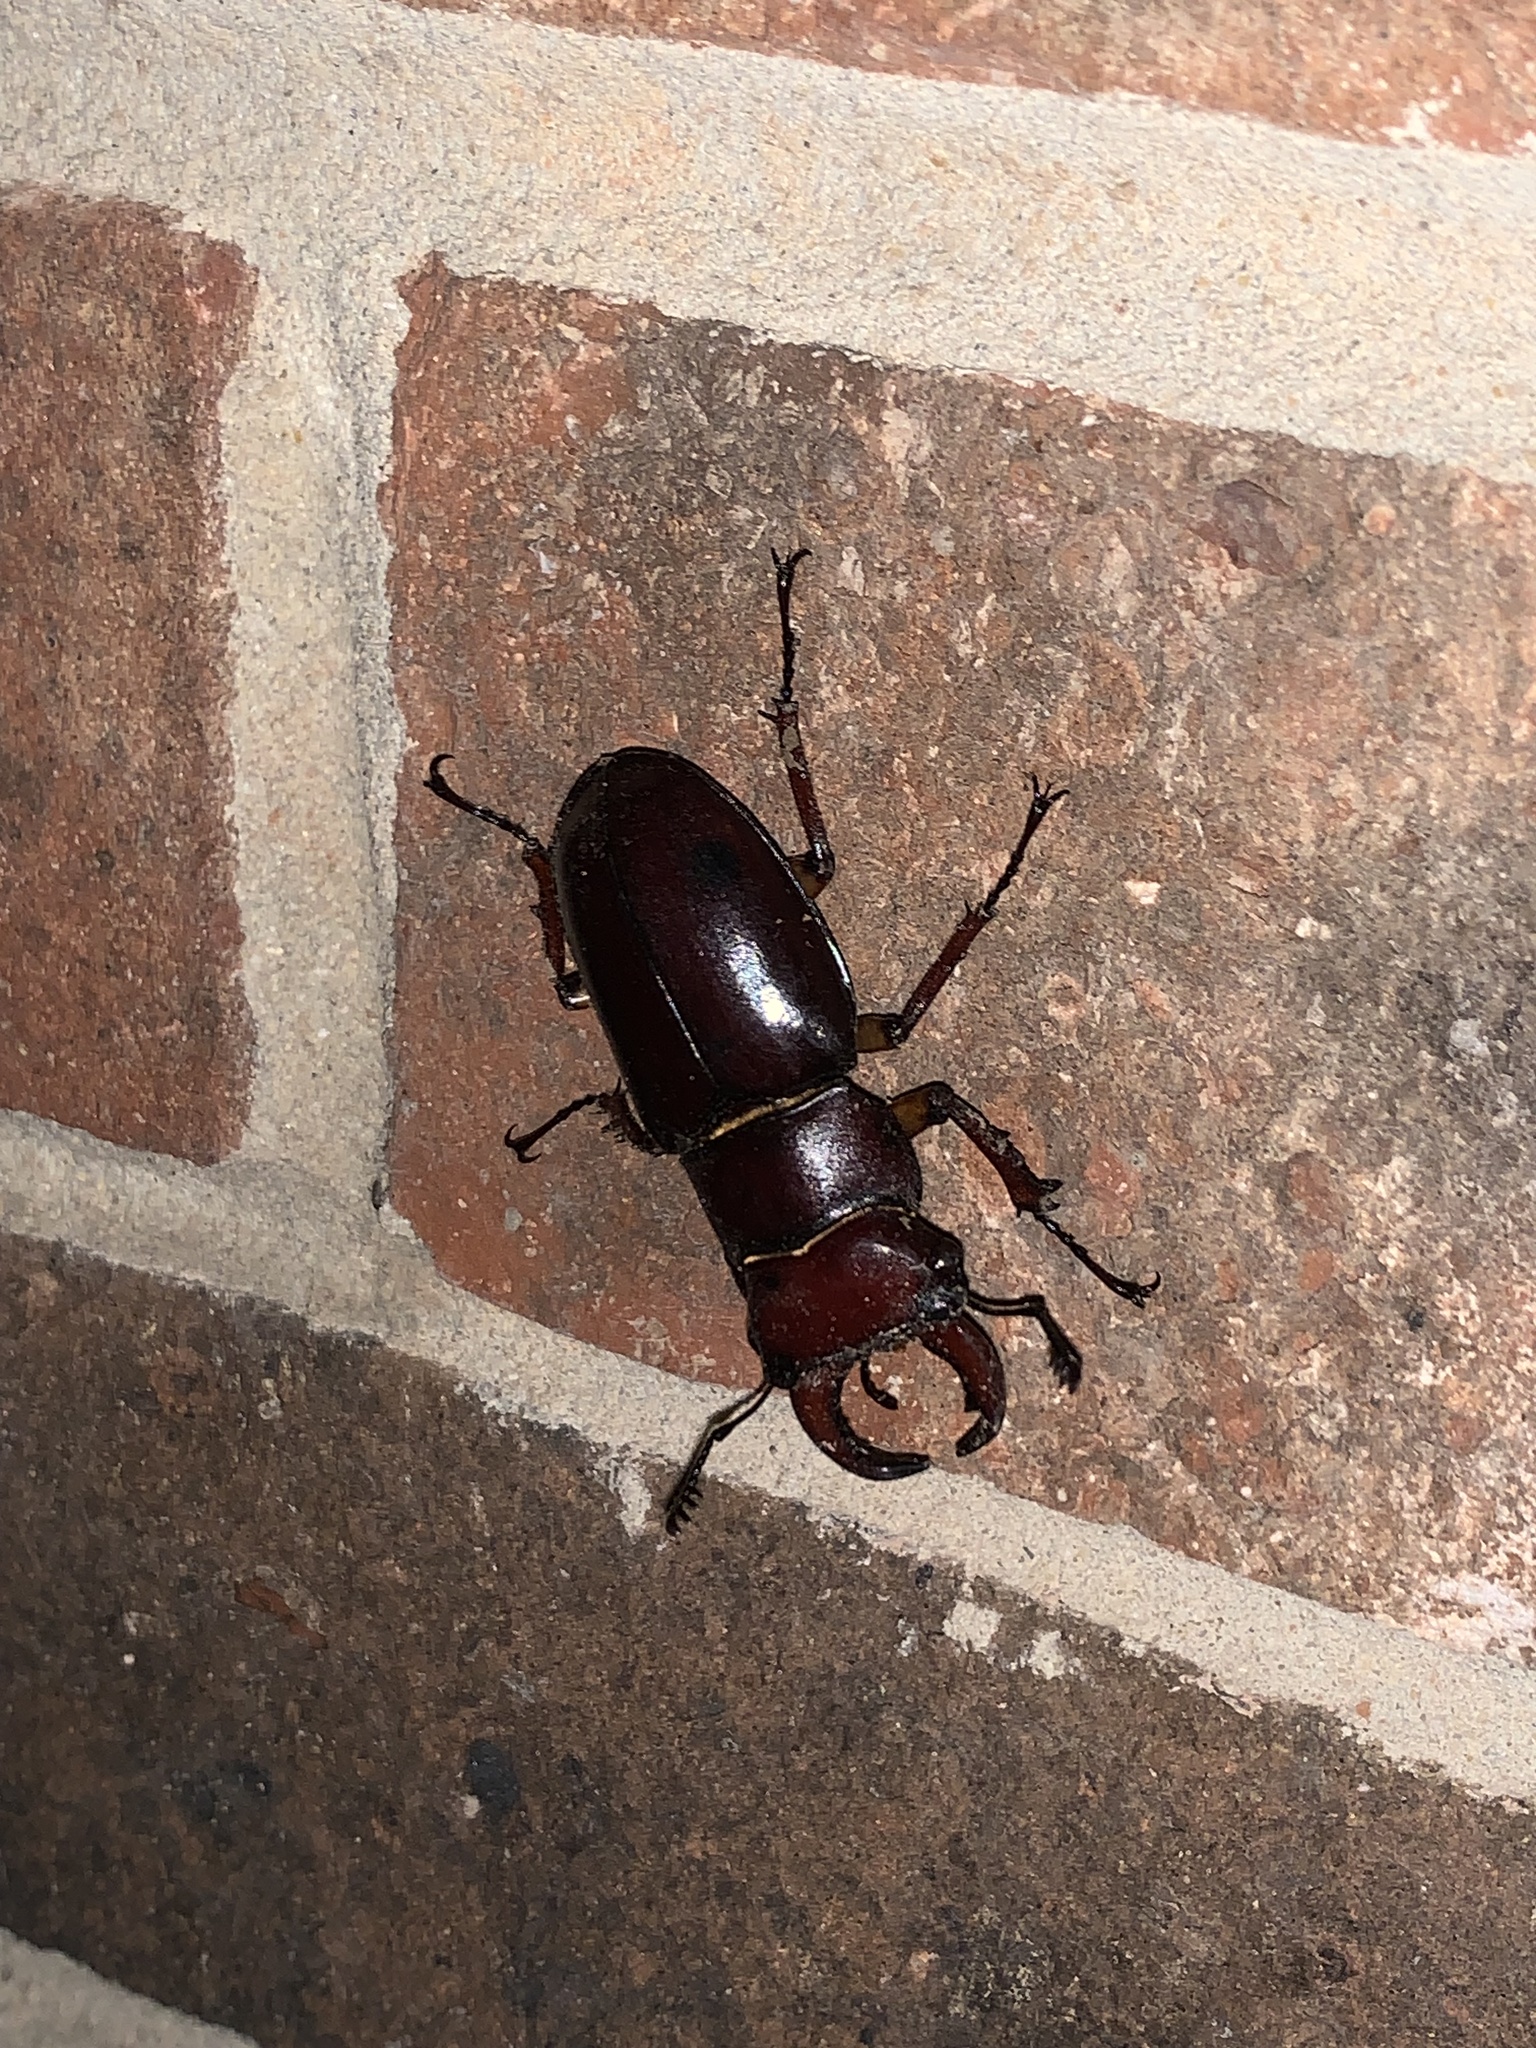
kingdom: Animalia
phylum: Arthropoda
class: Insecta
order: Coleoptera
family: Lucanidae
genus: Lucanus
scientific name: Lucanus capreolus
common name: Stag beetle
